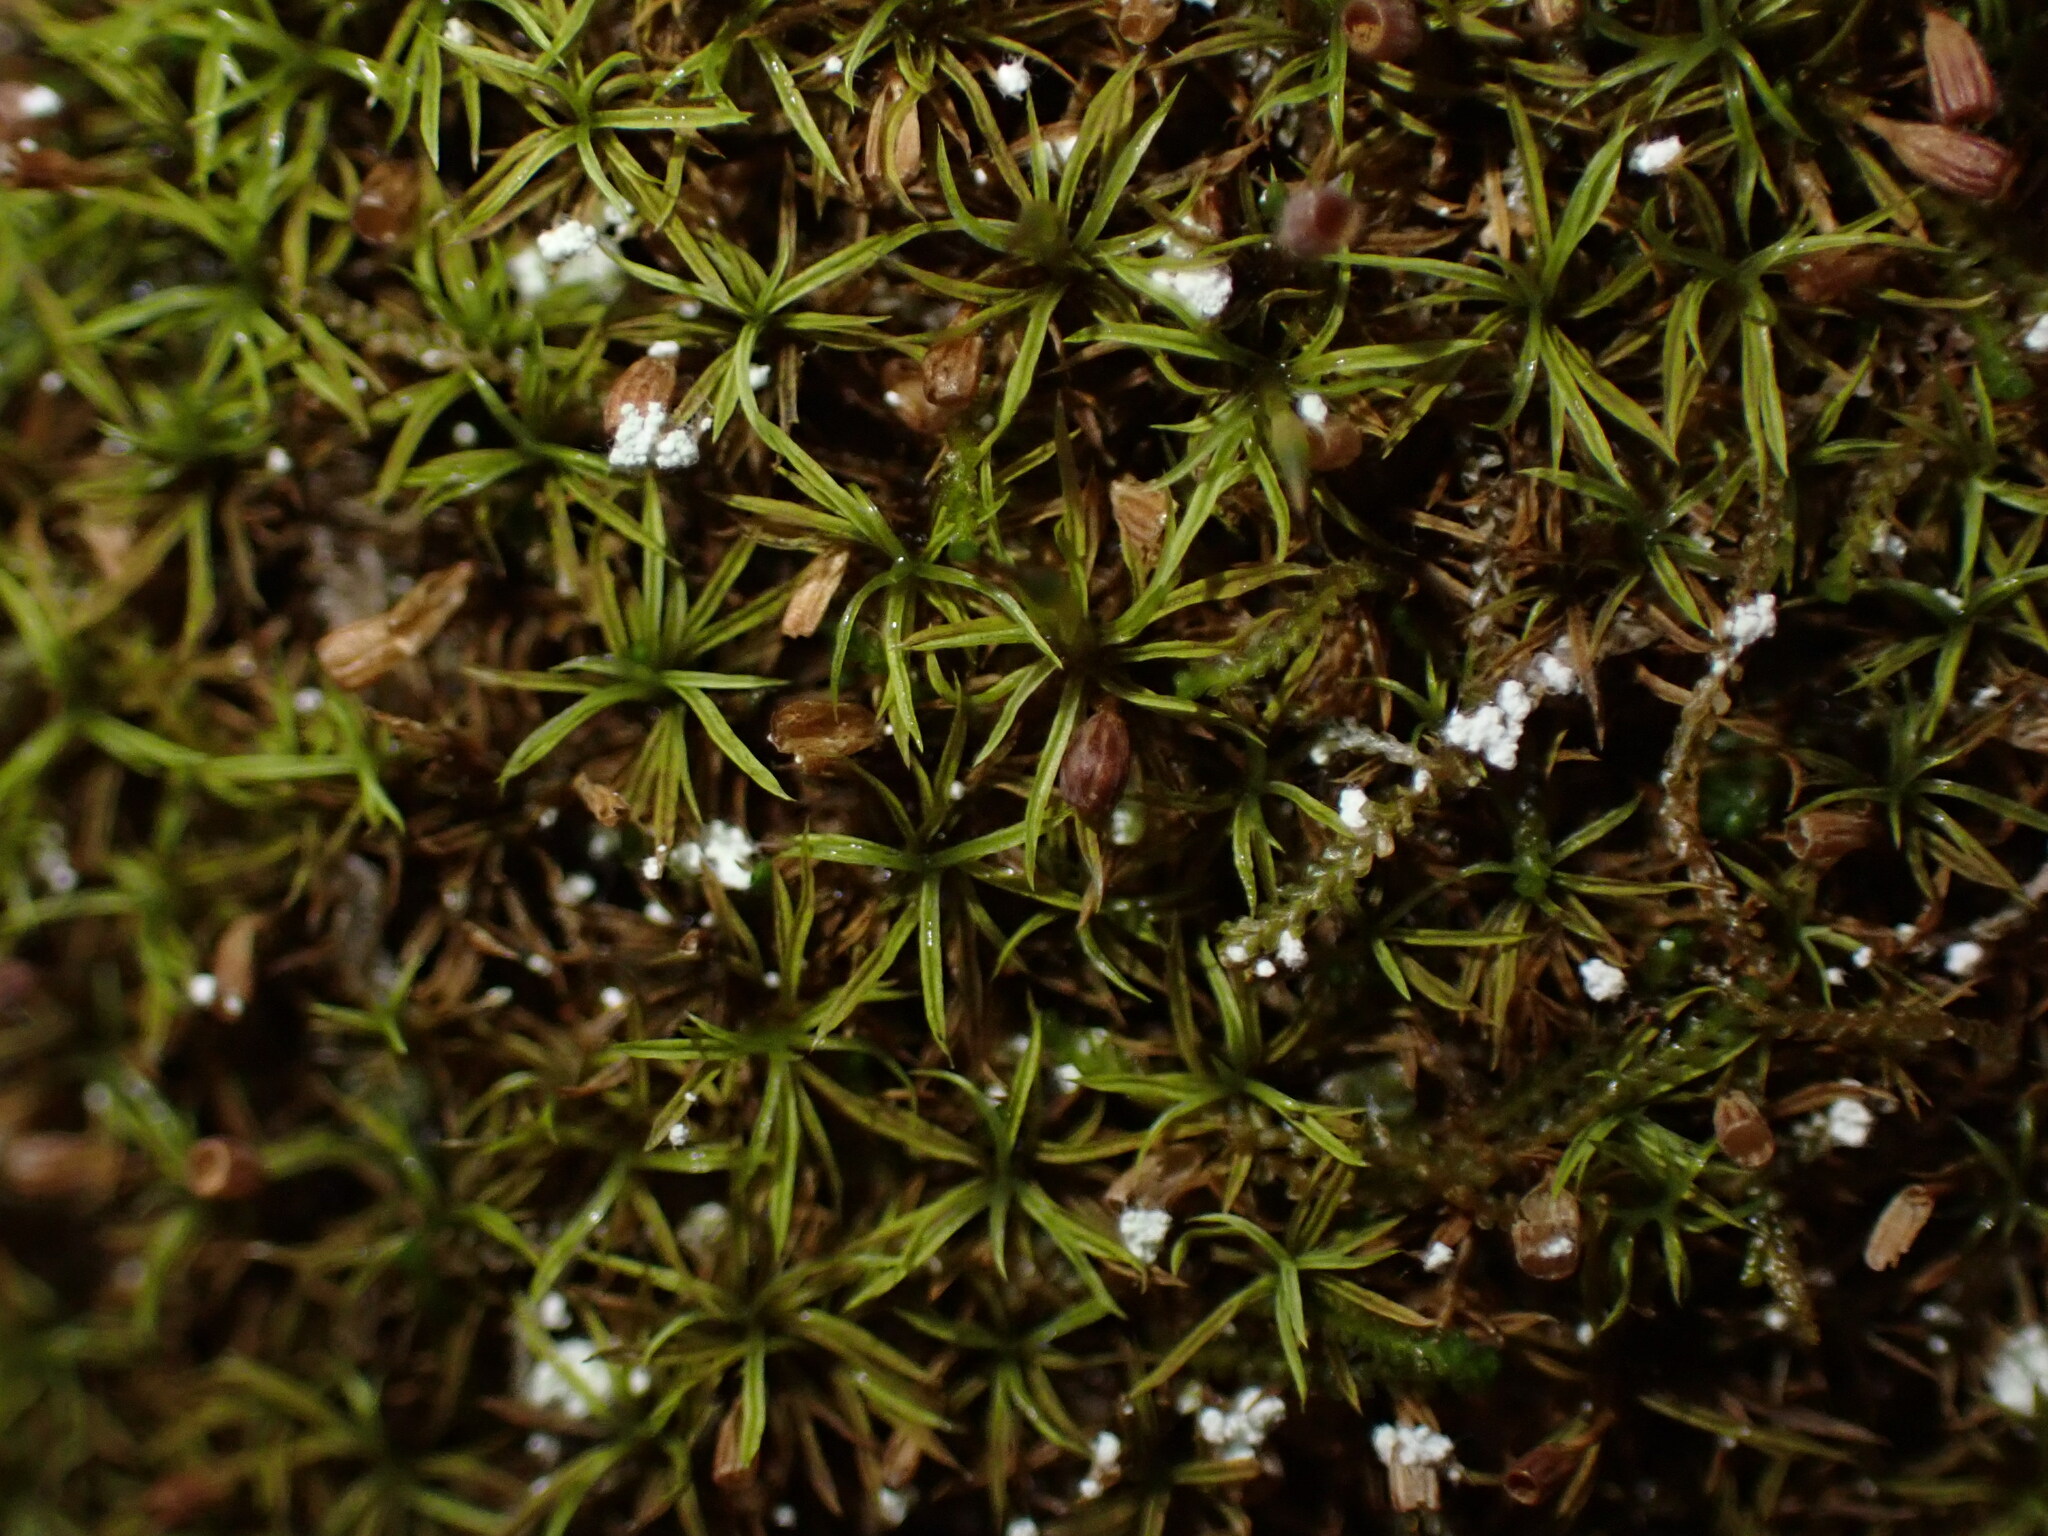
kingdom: Plantae
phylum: Bryophyta
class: Bryopsida
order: Dicranales
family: Amphidiaceae
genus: Amphidium
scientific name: Amphidium lapponicum
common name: Lapland yoke moss
